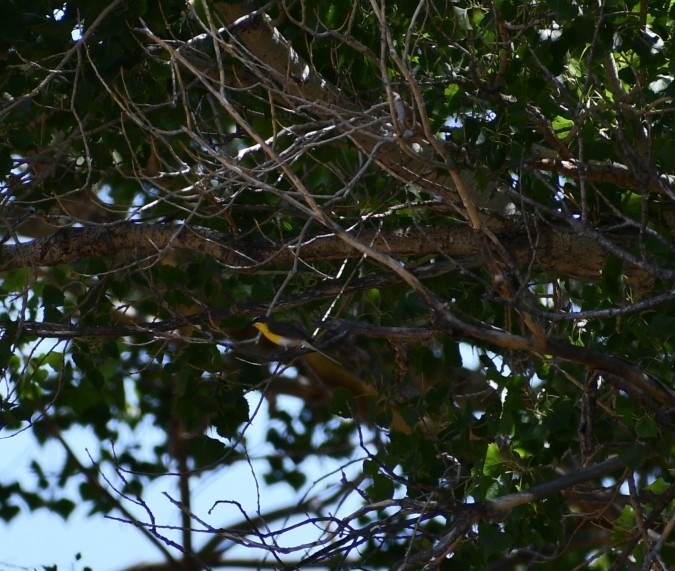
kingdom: Animalia
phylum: Chordata
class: Aves
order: Passeriformes
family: Parulidae
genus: Icteria
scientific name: Icteria virens
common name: Yellow-breasted chat
